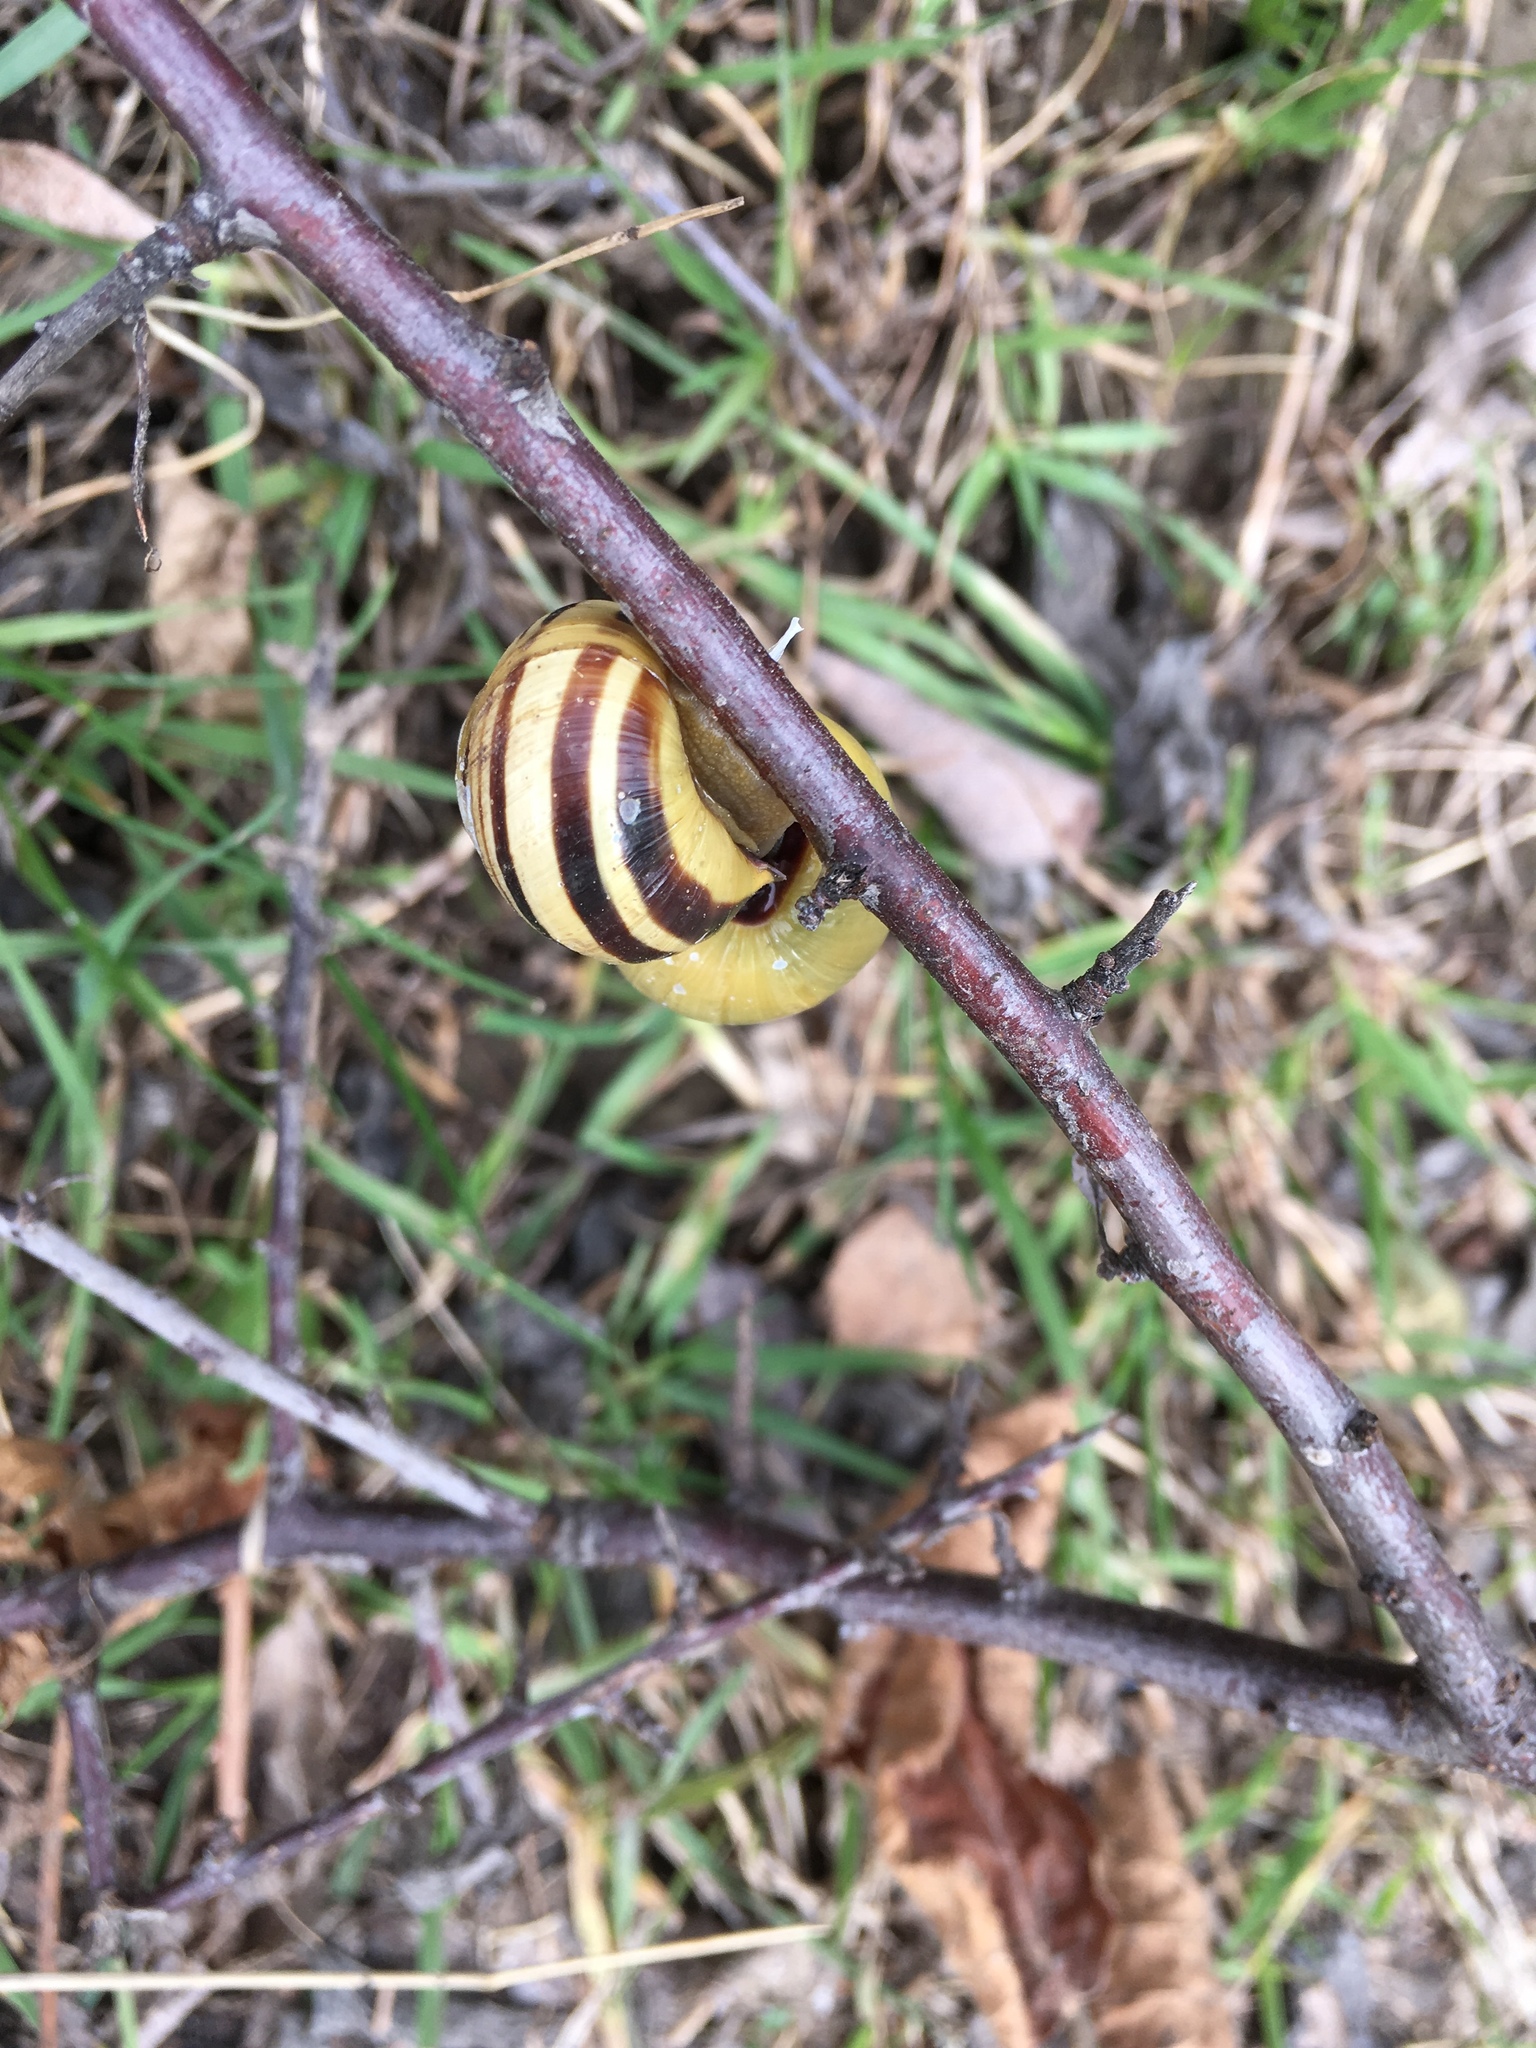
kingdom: Animalia
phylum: Mollusca
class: Gastropoda
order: Stylommatophora
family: Helicidae
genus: Cepaea
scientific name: Cepaea nemoralis
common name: Grovesnail
